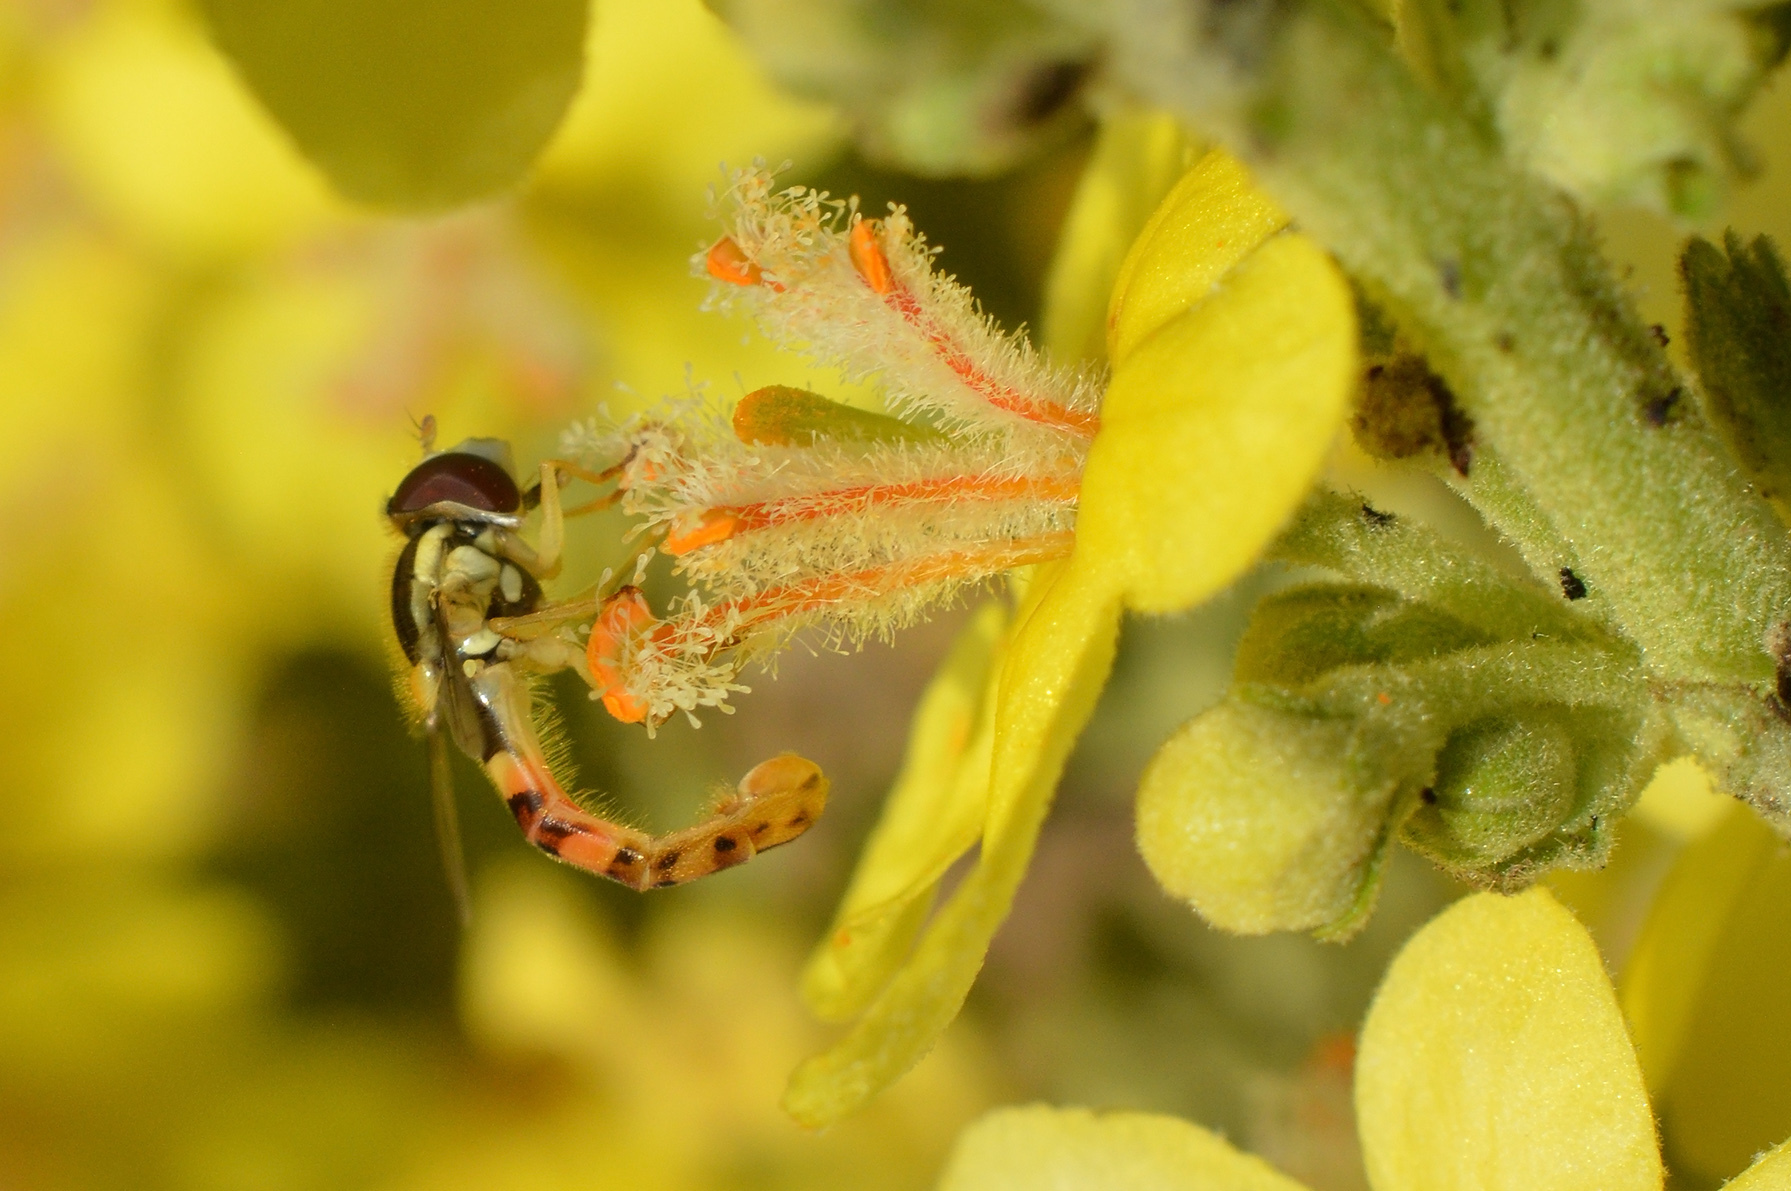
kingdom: Animalia
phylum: Arthropoda
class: Insecta
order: Diptera
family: Syrphidae
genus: Sphaerophoria
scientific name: Sphaerophoria scripta
